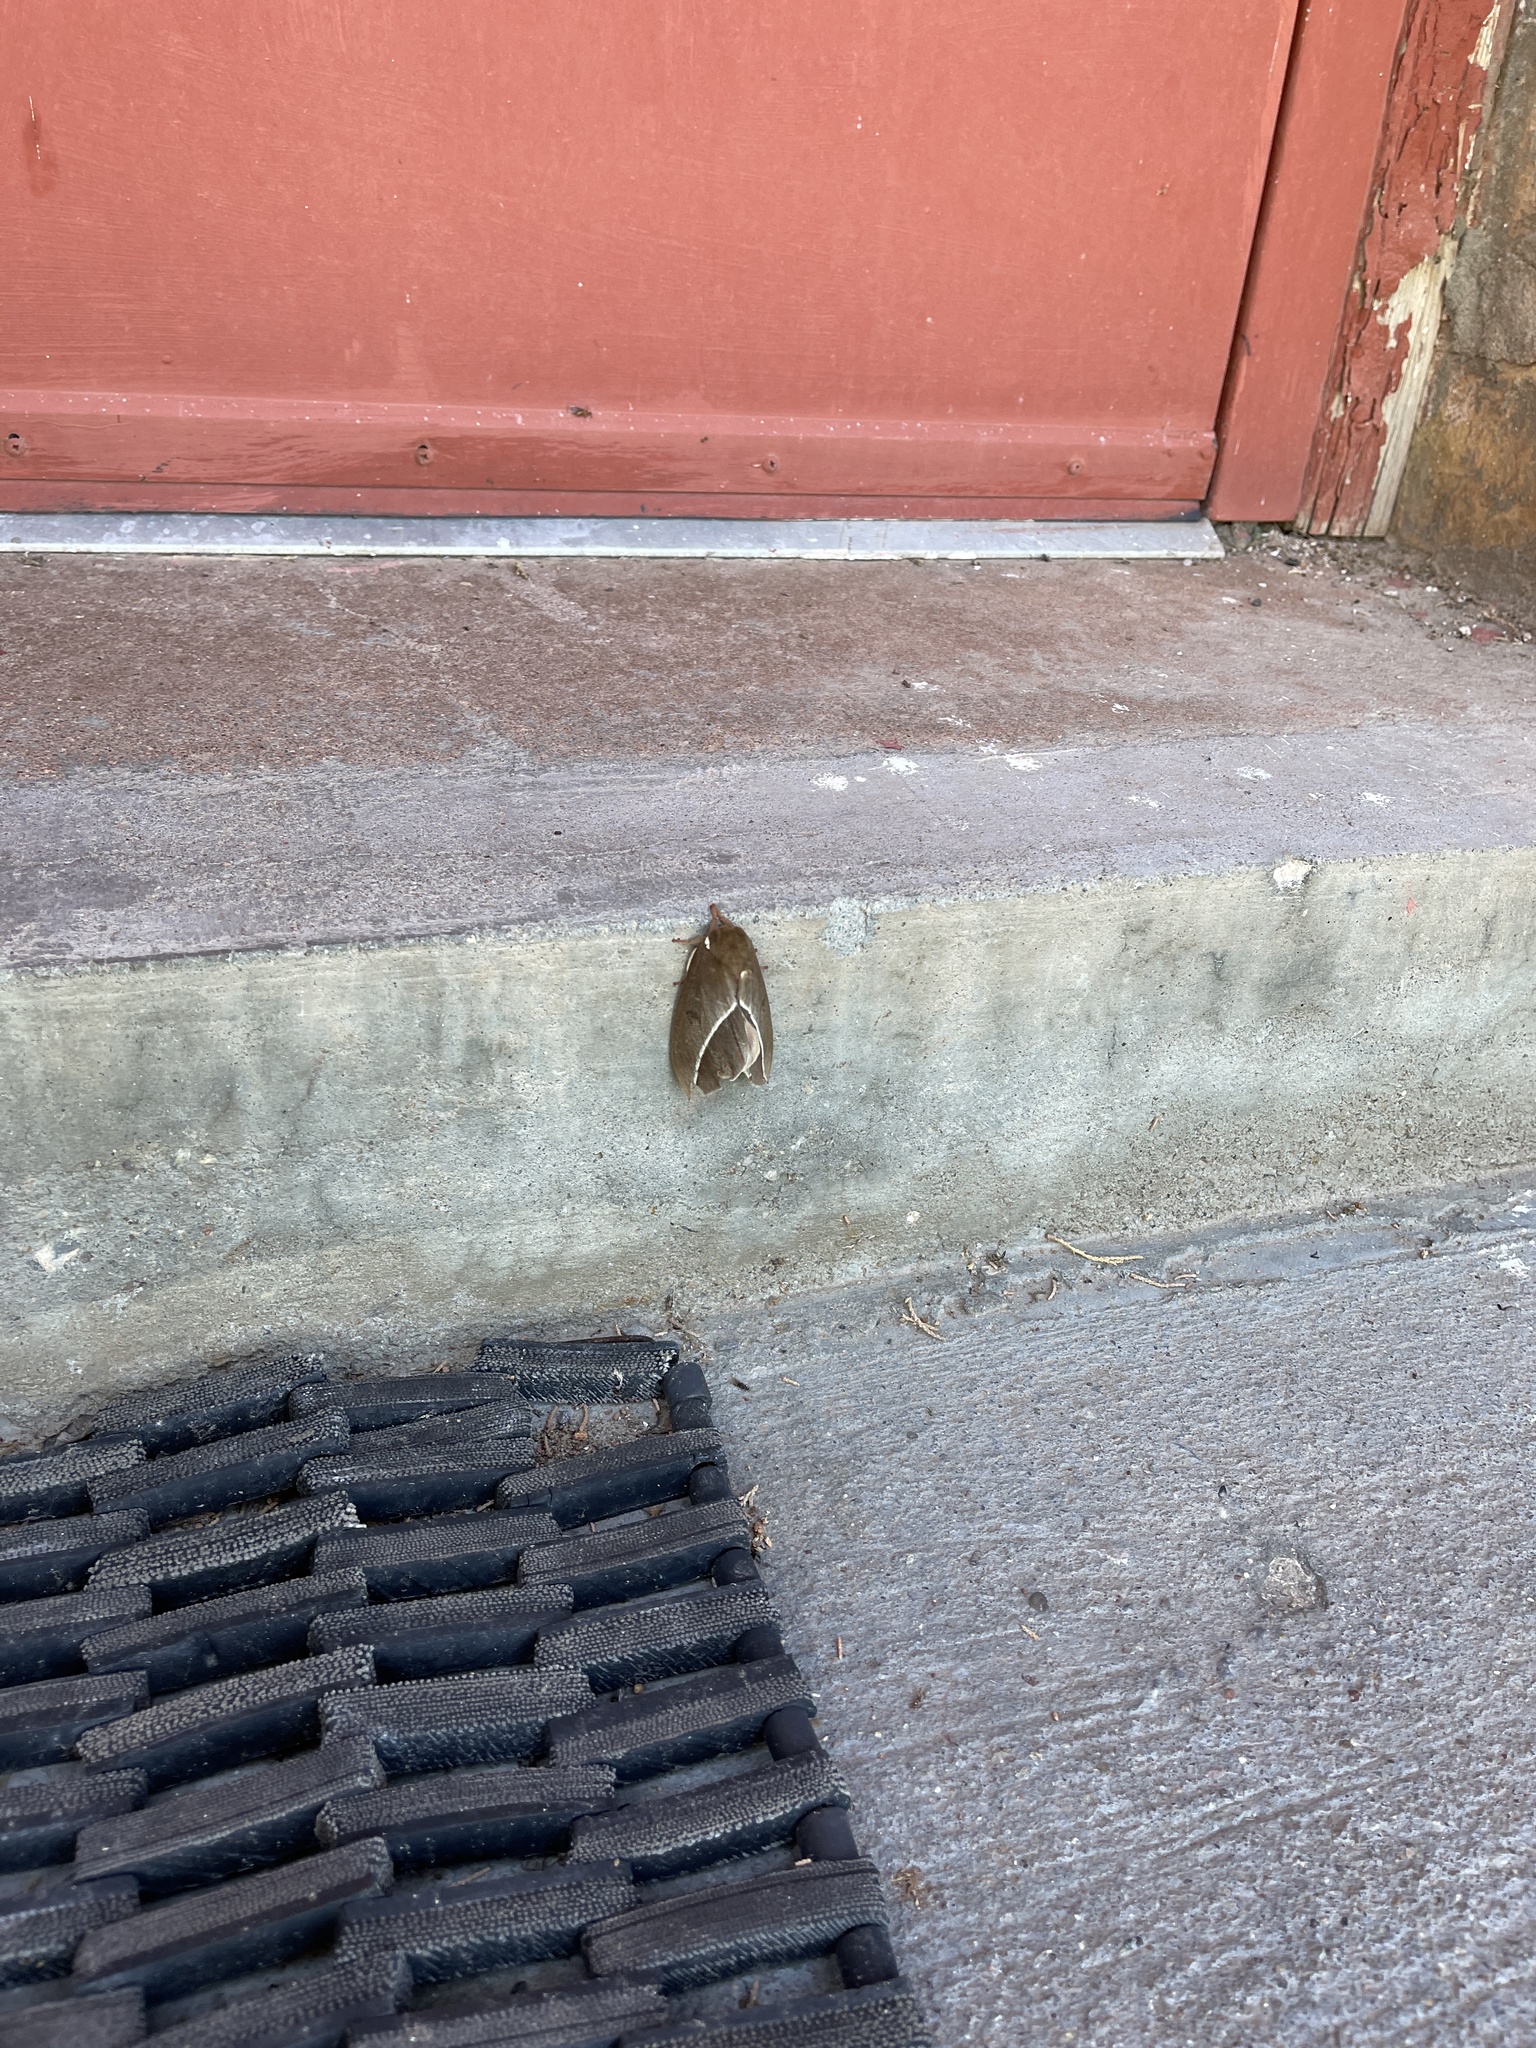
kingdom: Animalia
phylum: Arthropoda
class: Insecta
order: Lepidoptera
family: Saturniidae
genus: Automeris
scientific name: Automeris zephyria
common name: Zephyr eyed silkmoth
